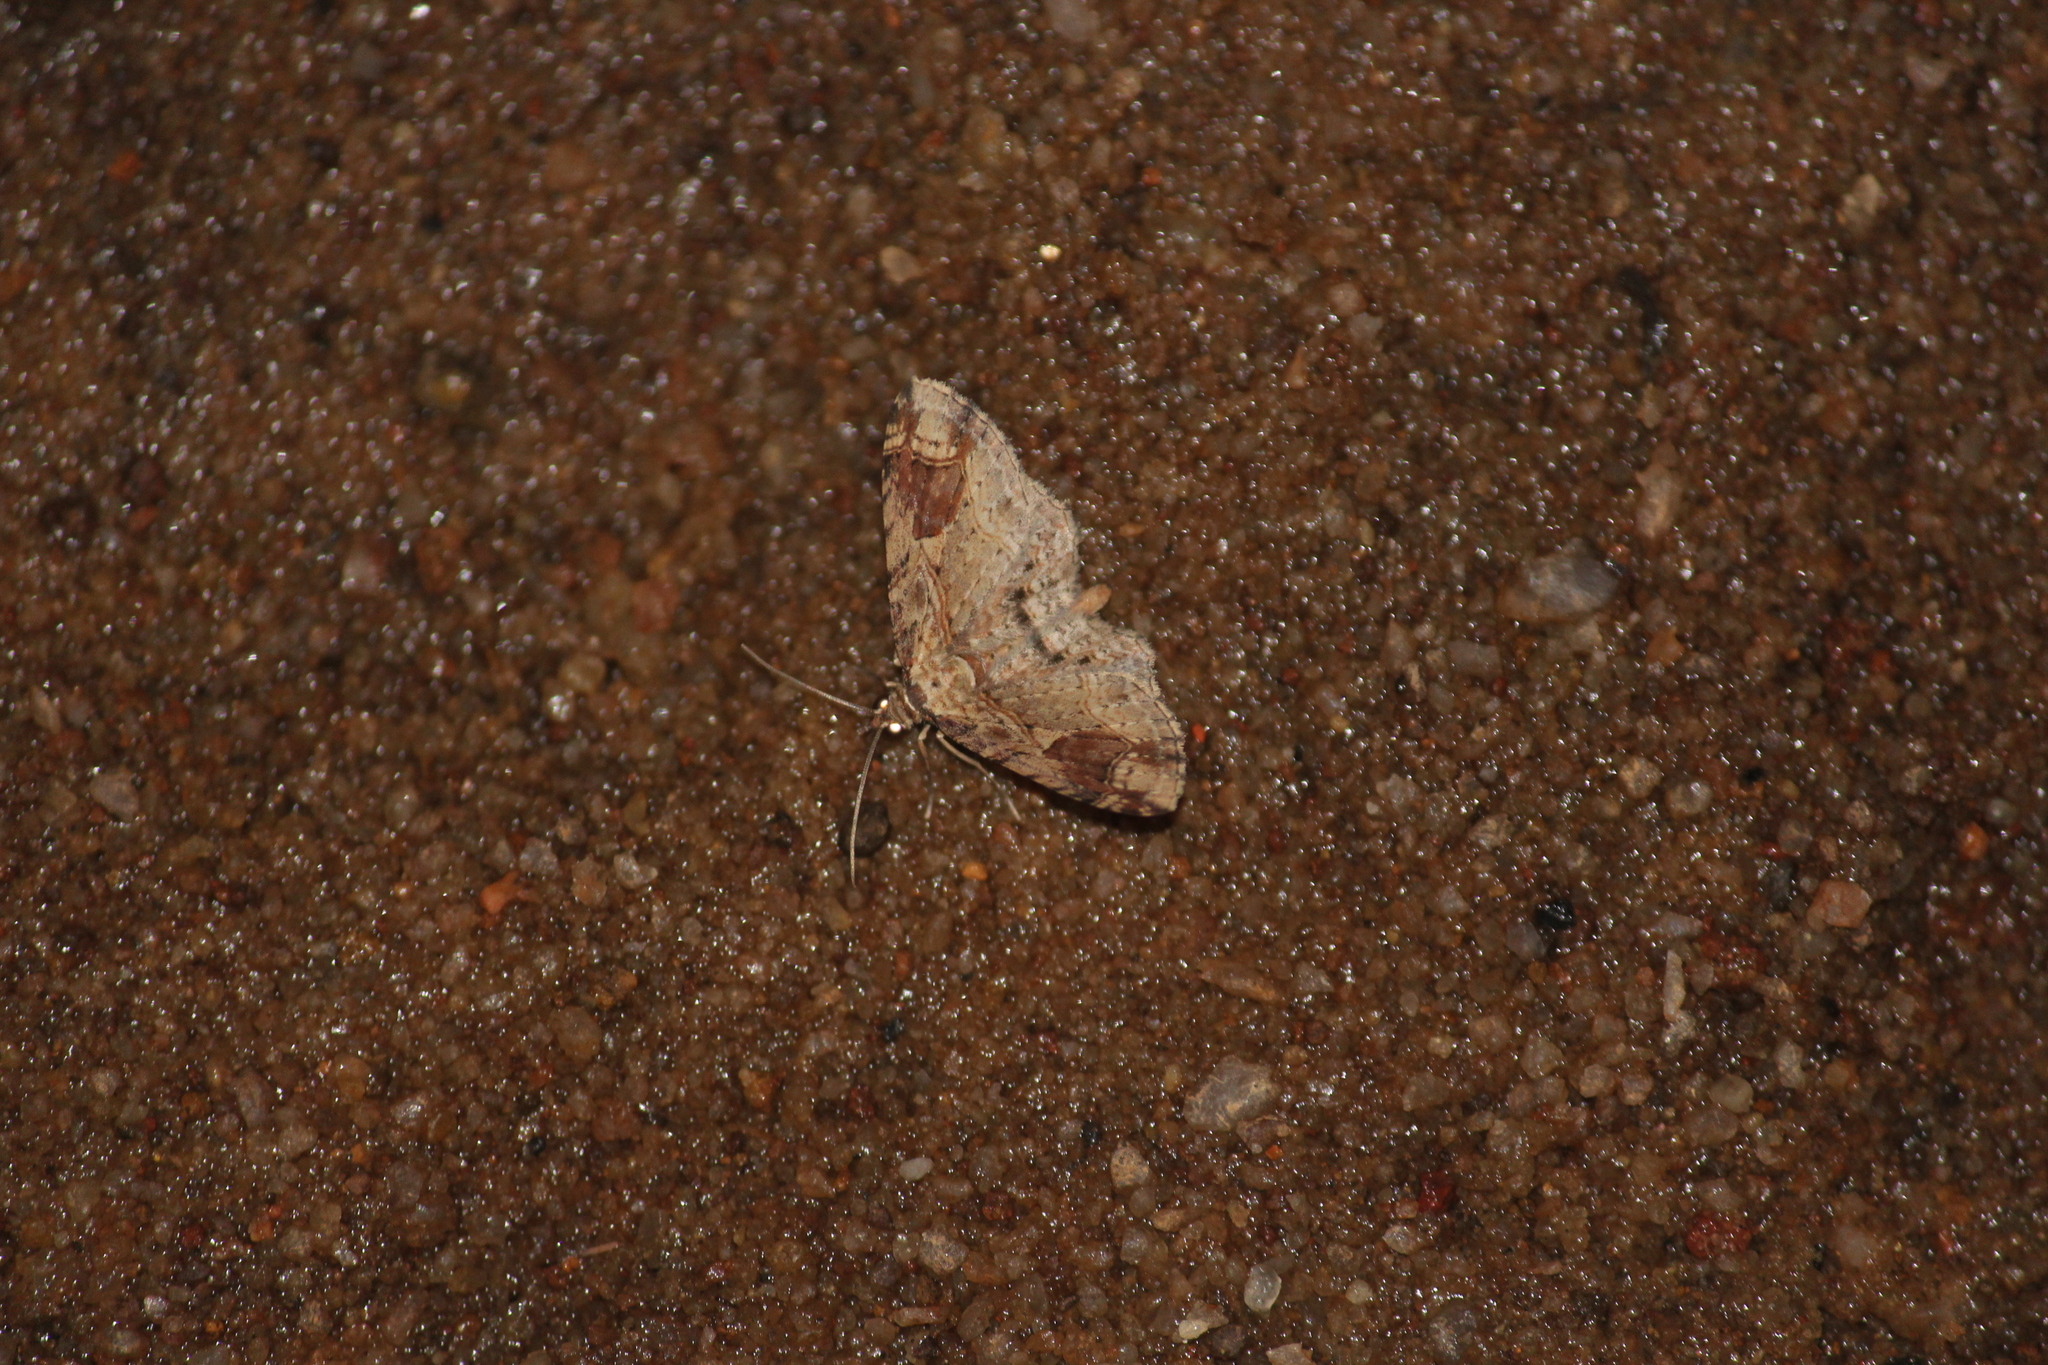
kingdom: Animalia
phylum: Arthropoda
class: Insecta
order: Lepidoptera
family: Geometridae
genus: Pingasa
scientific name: Pingasa ruginaria
